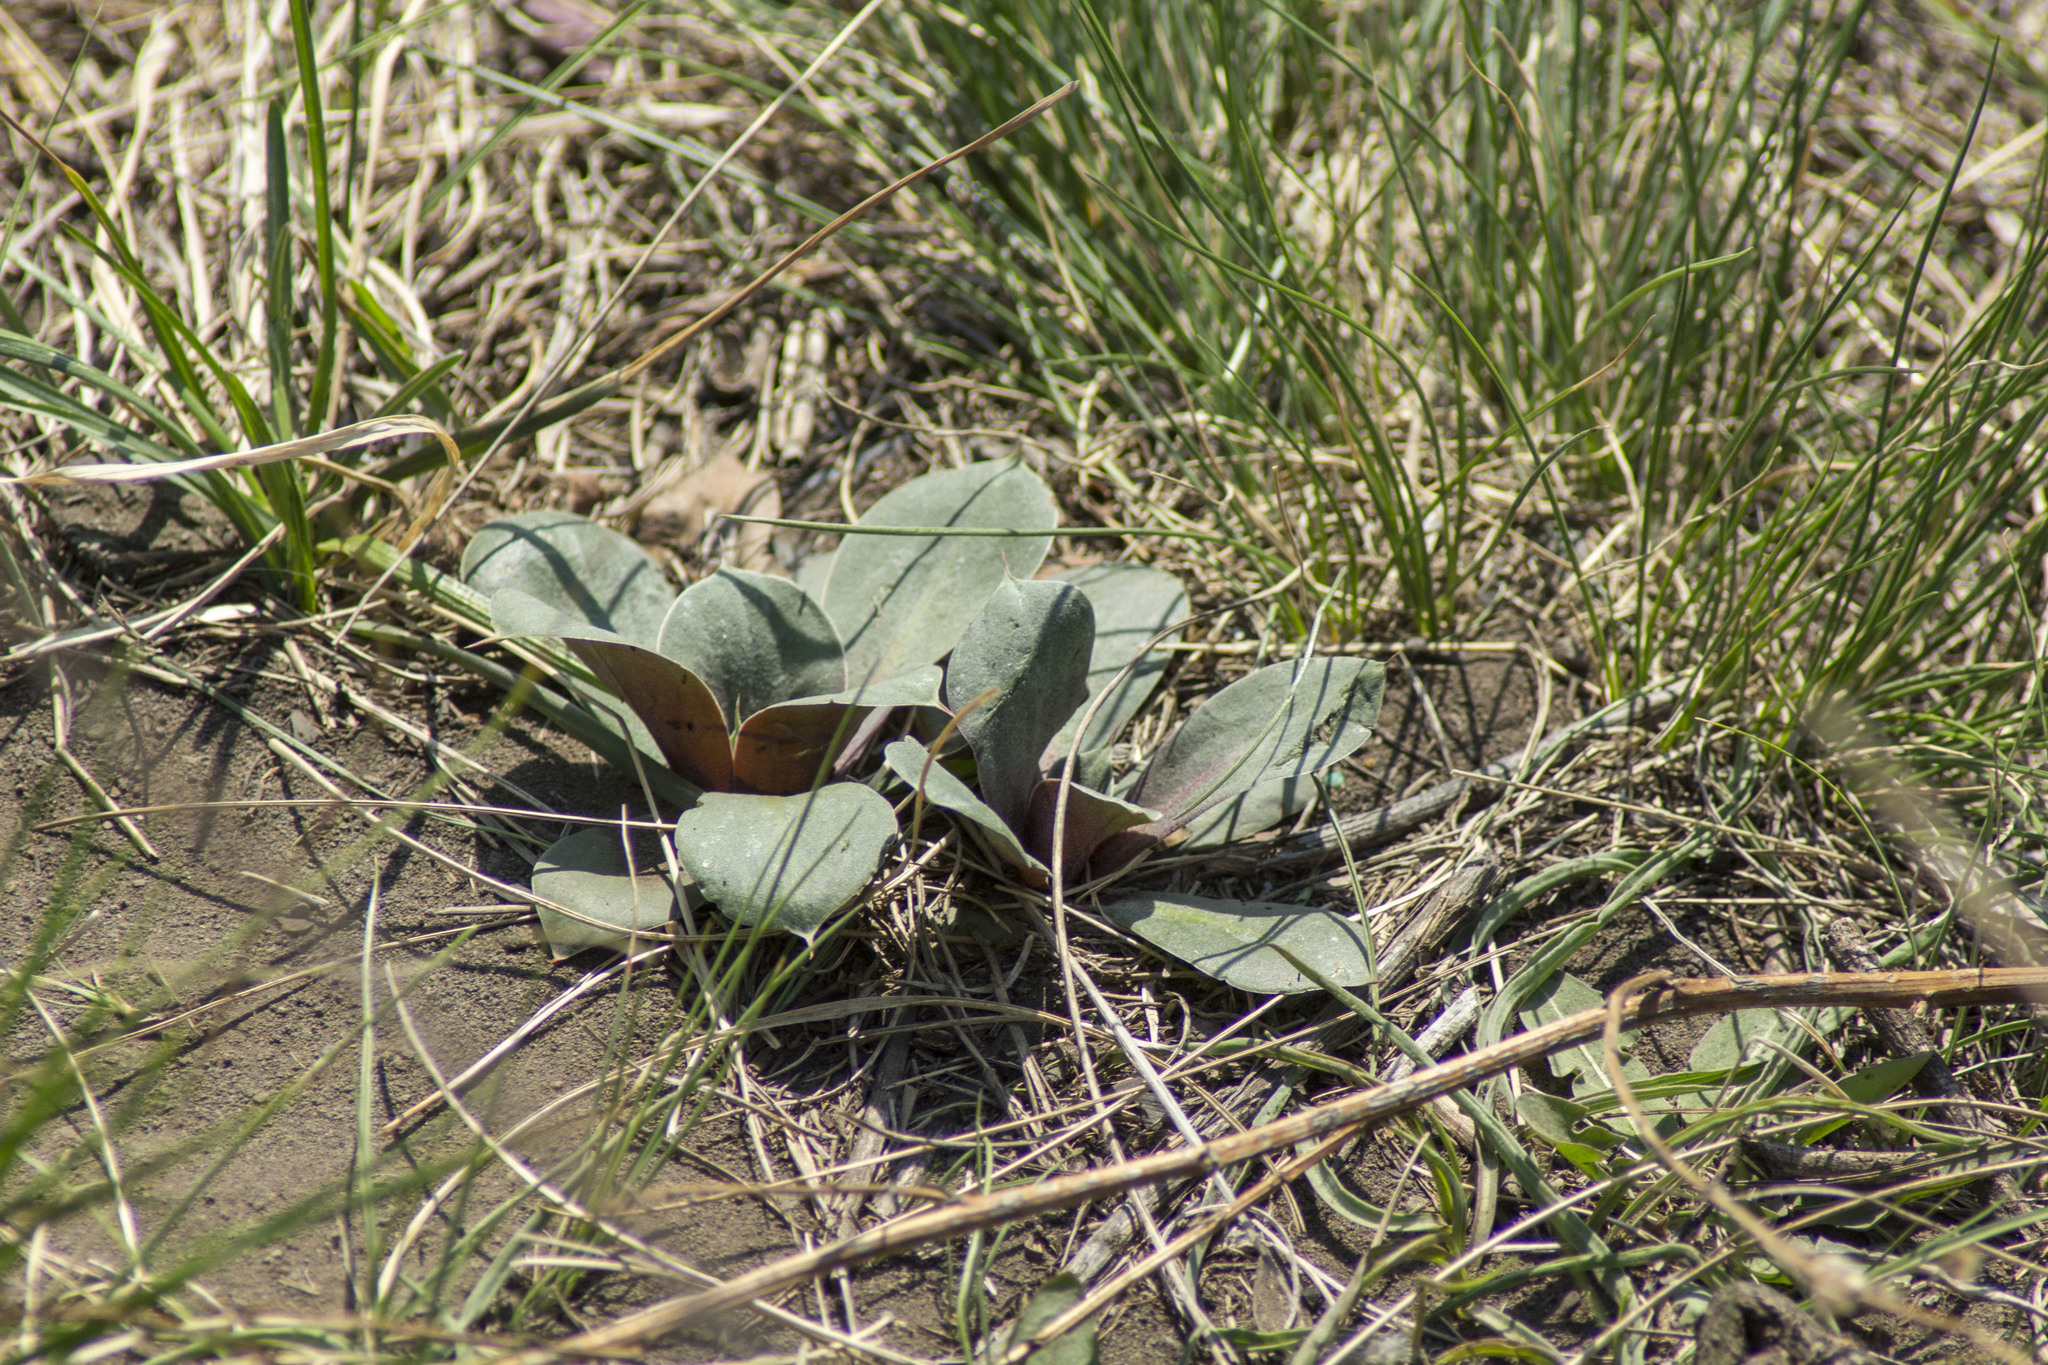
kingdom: Plantae
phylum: Tracheophyta
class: Magnoliopsida
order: Caryophyllales
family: Plumbaginaceae
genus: Goniolimon
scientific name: Goniolimon speciosum
